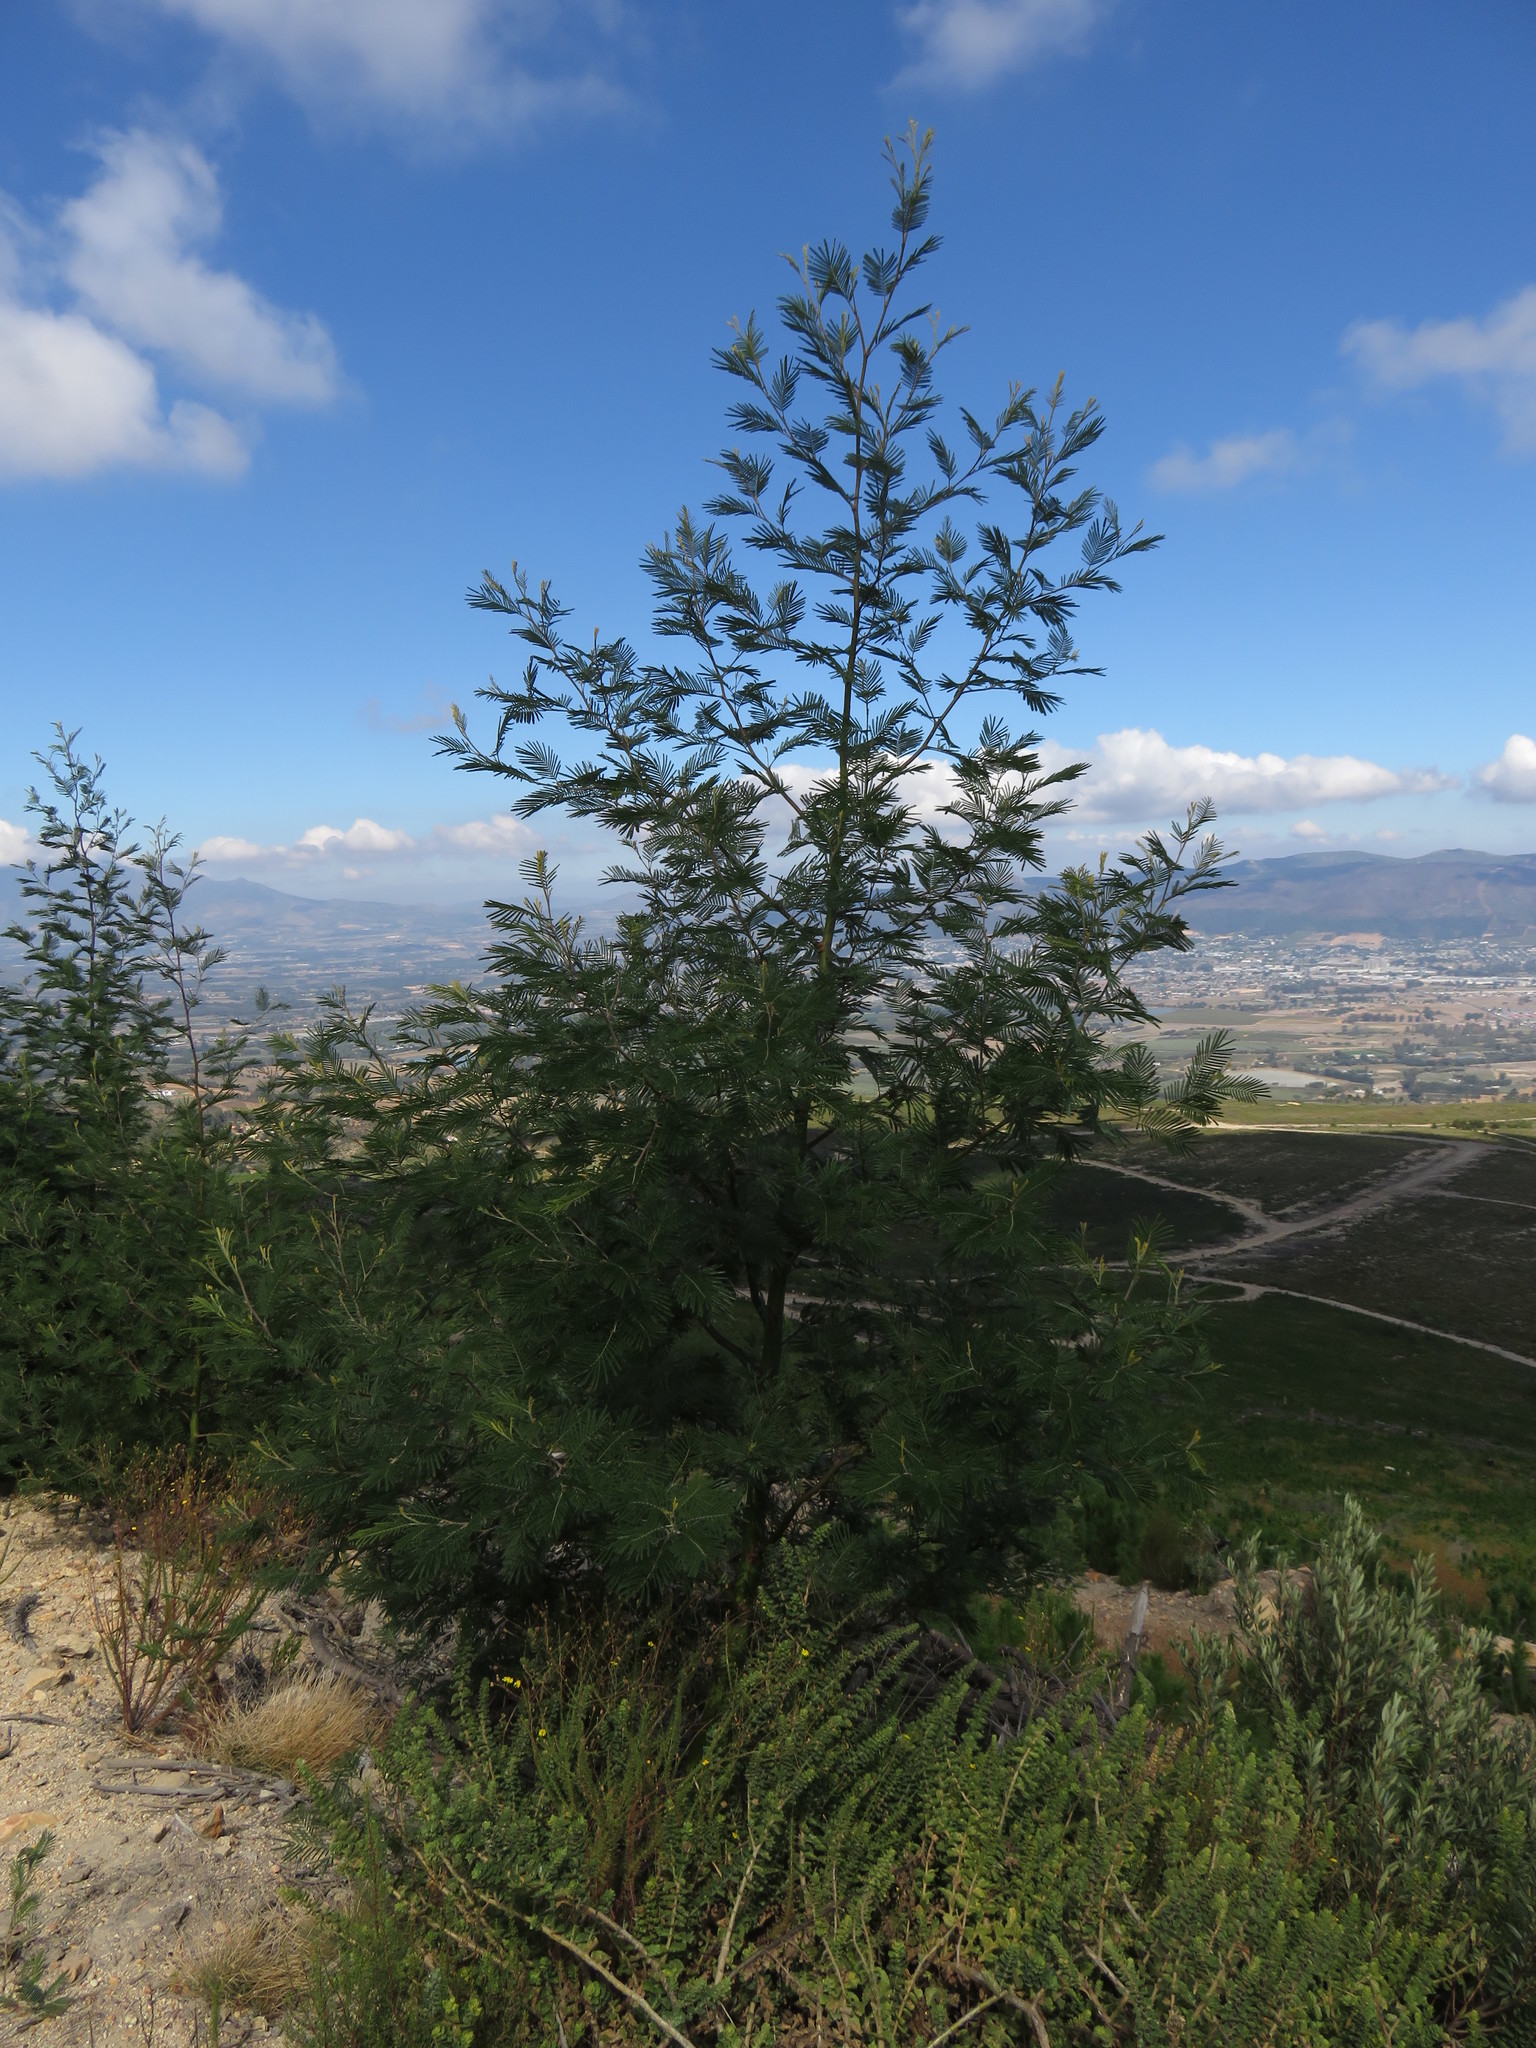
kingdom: Plantae
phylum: Tracheophyta
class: Magnoliopsida
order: Fabales
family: Fabaceae
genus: Acacia
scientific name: Acacia mearnsii
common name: Black wattle
